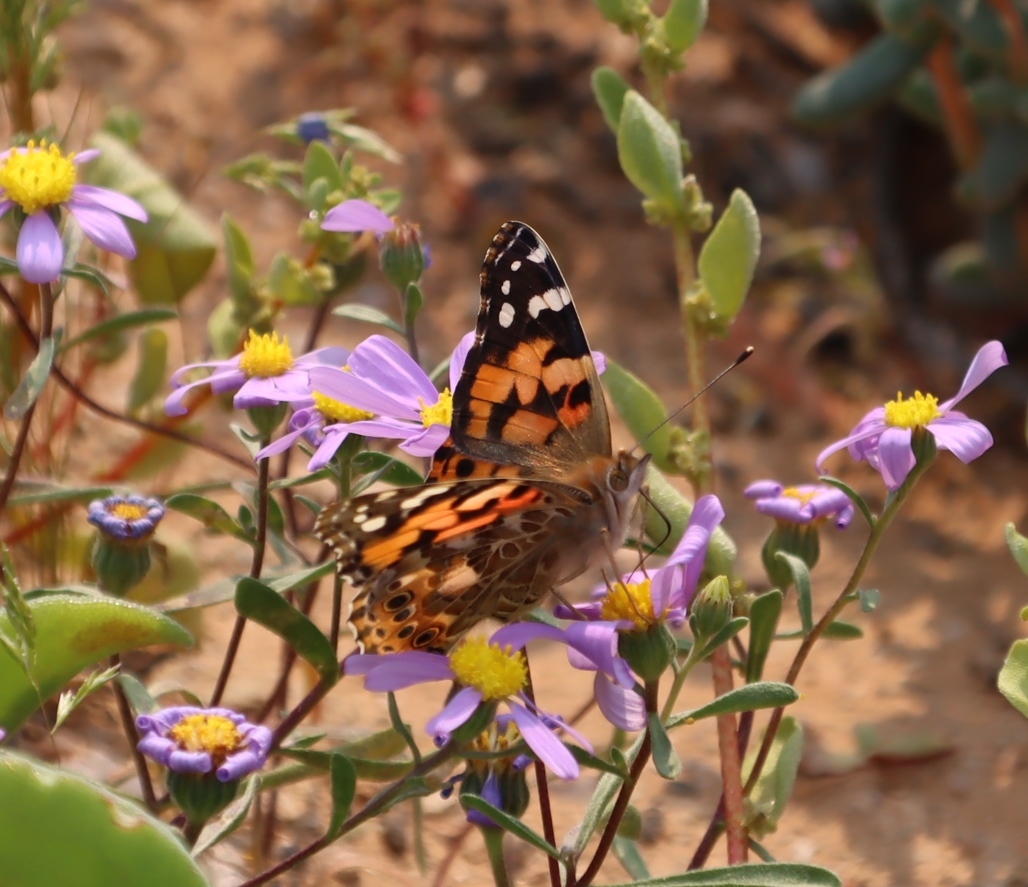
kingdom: Animalia
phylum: Arthropoda
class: Insecta
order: Lepidoptera
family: Nymphalidae
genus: Vanessa
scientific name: Vanessa cardui
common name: Painted lady
